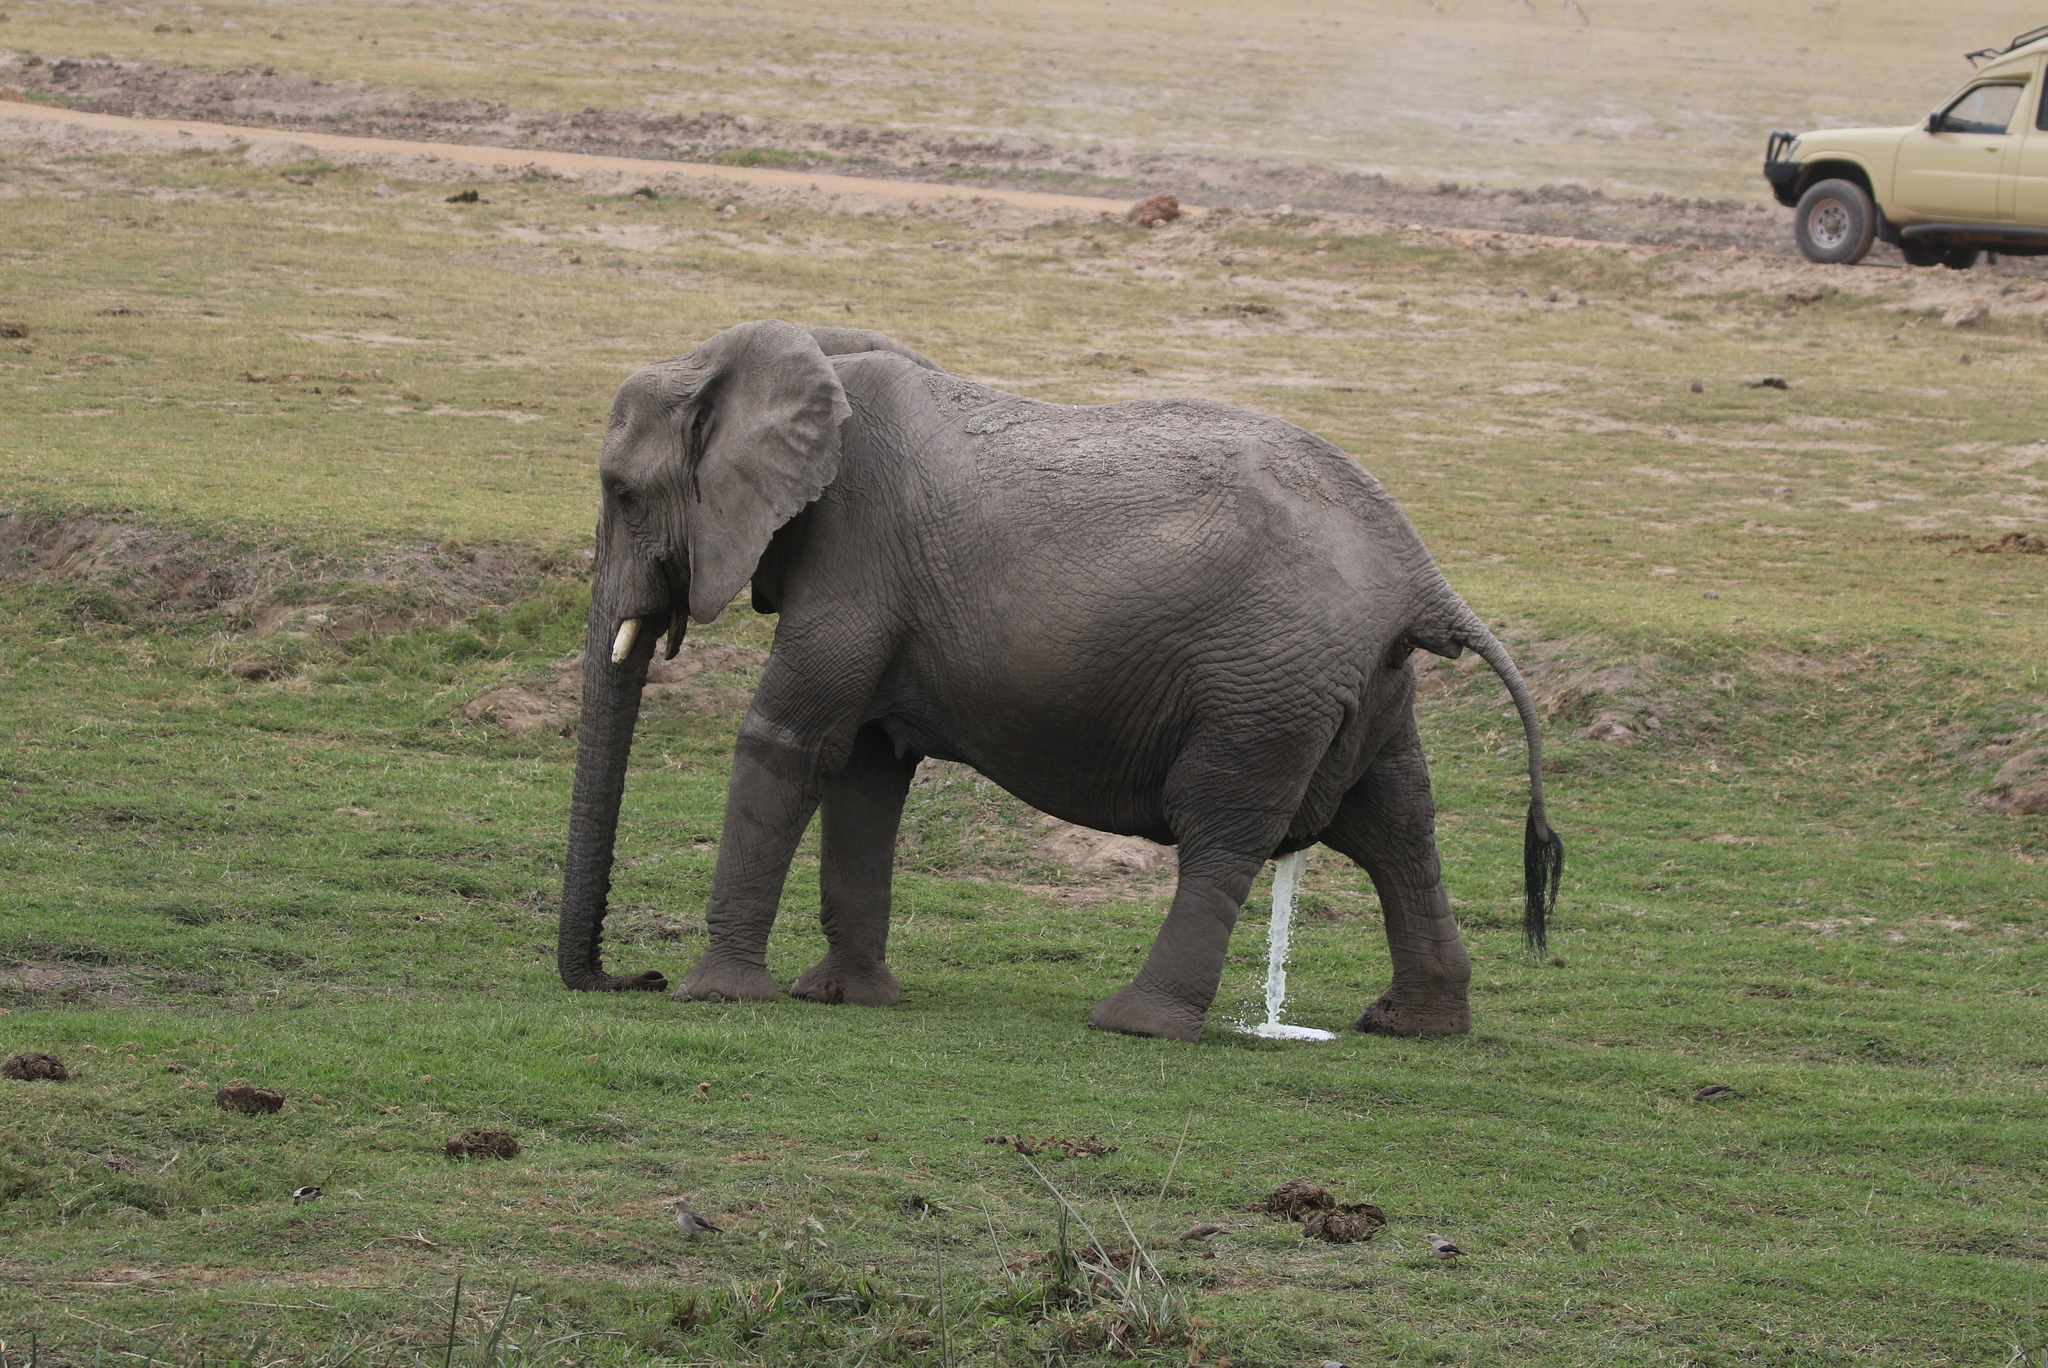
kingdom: Animalia
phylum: Chordata
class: Mammalia
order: Proboscidea
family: Elephantidae
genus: Loxodonta
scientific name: Loxodonta africana
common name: African elephant
